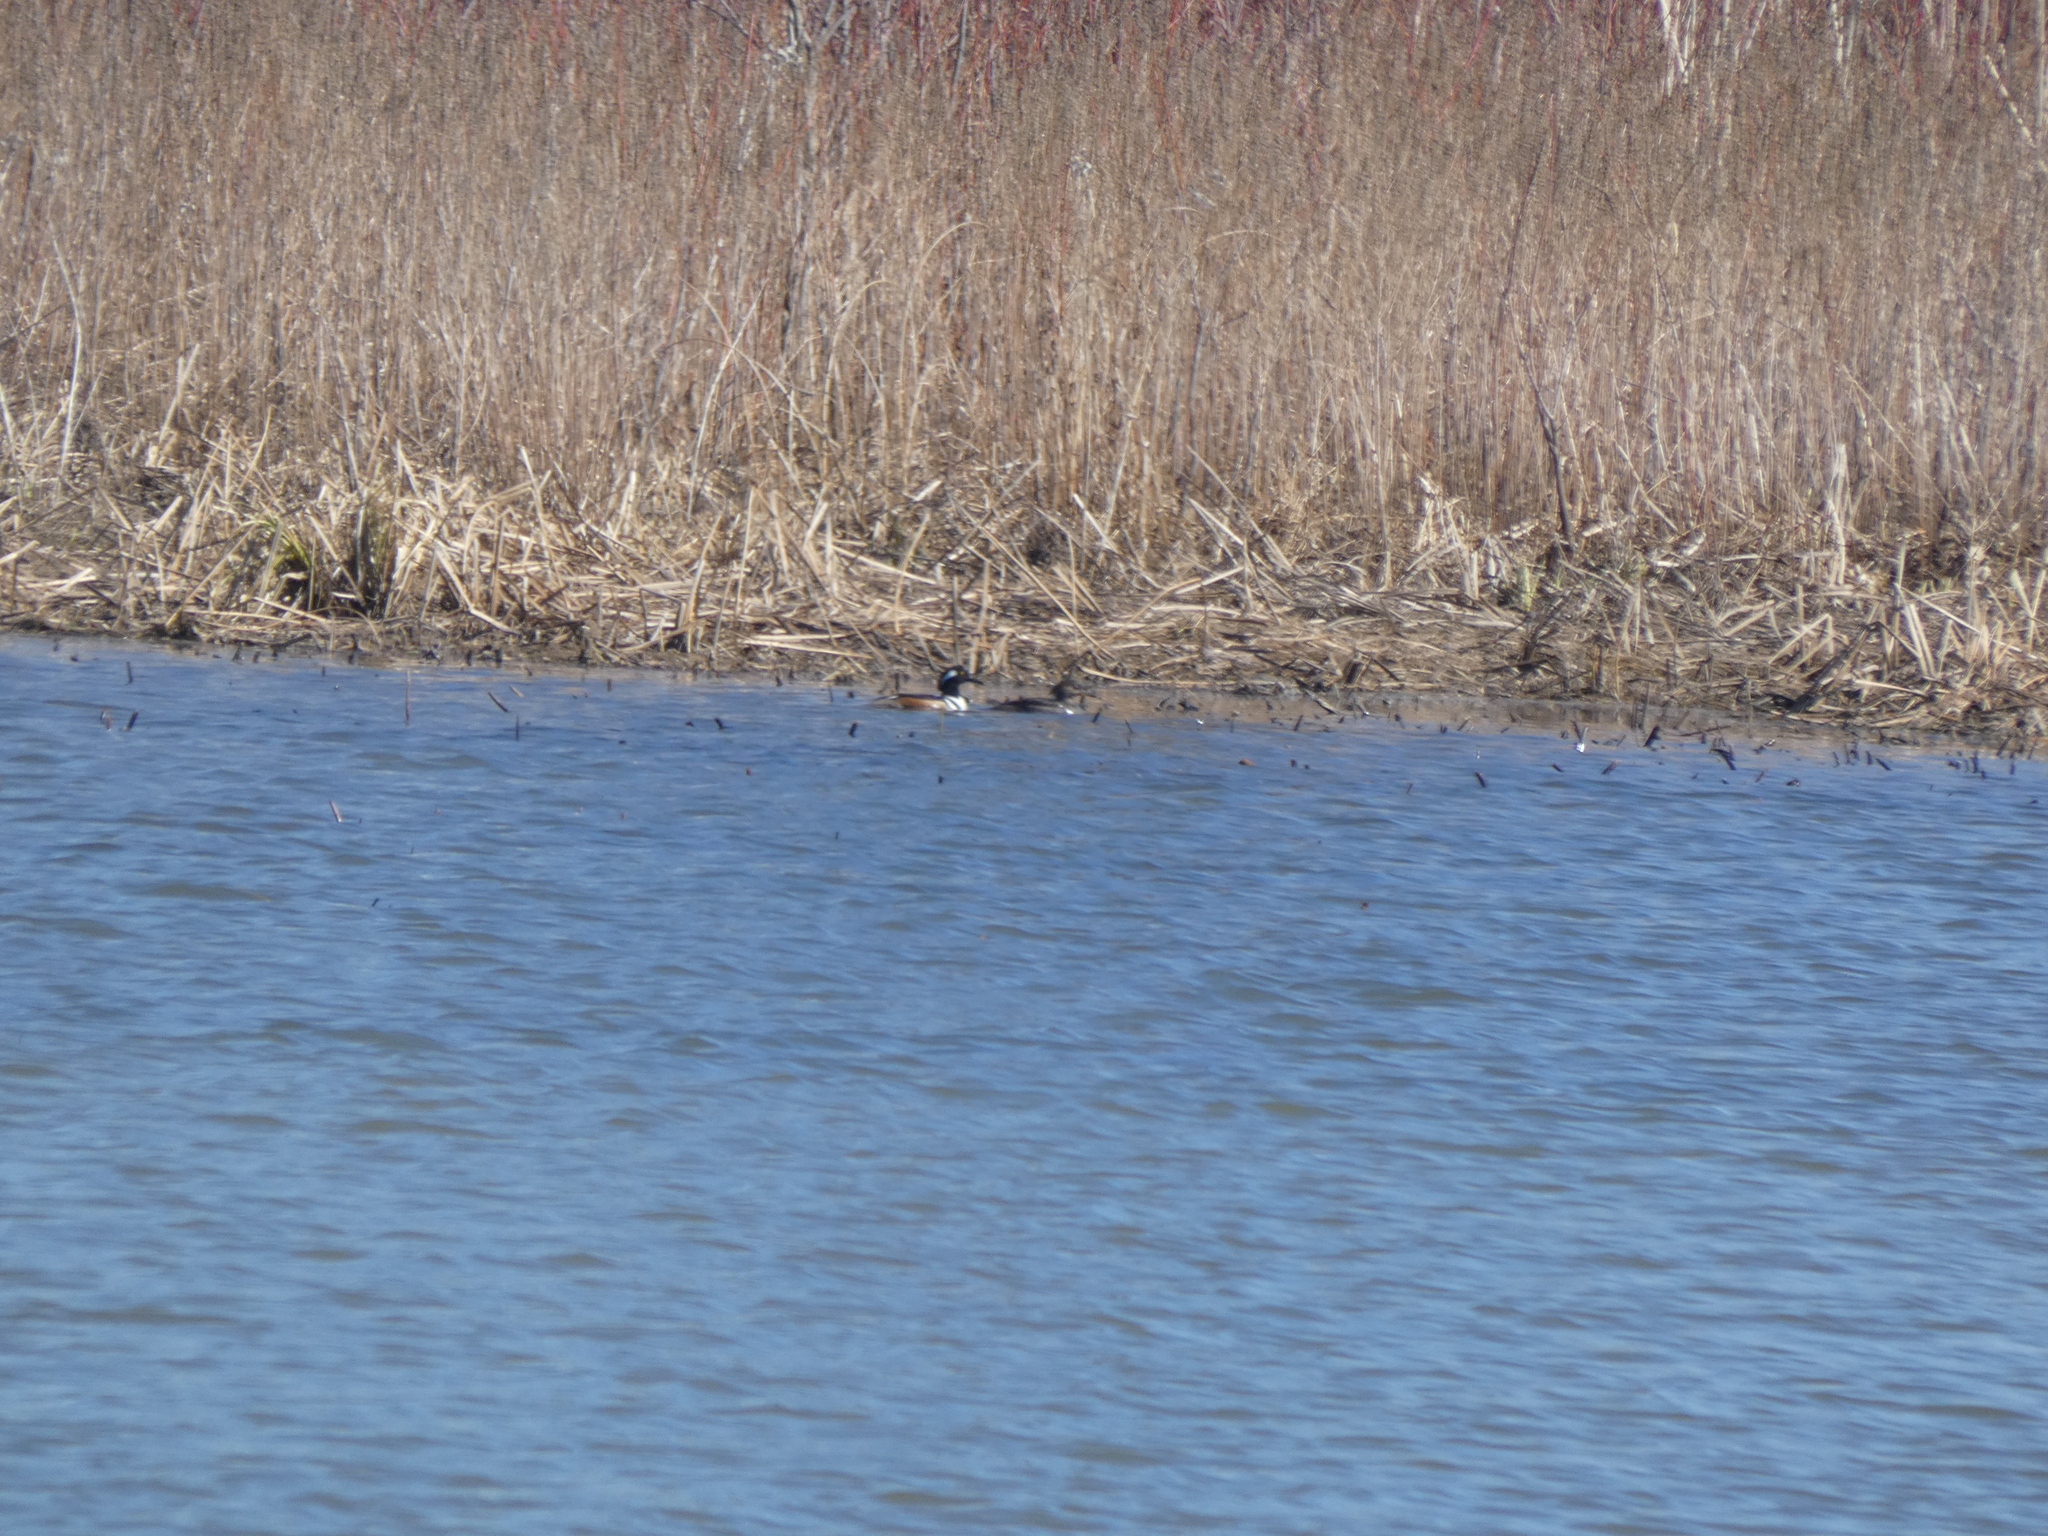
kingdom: Animalia
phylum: Chordata
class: Aves
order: Anseriformes
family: Anatidae
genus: Lophodytes
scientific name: Lophodytes cucullatus
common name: Hooded merganser
